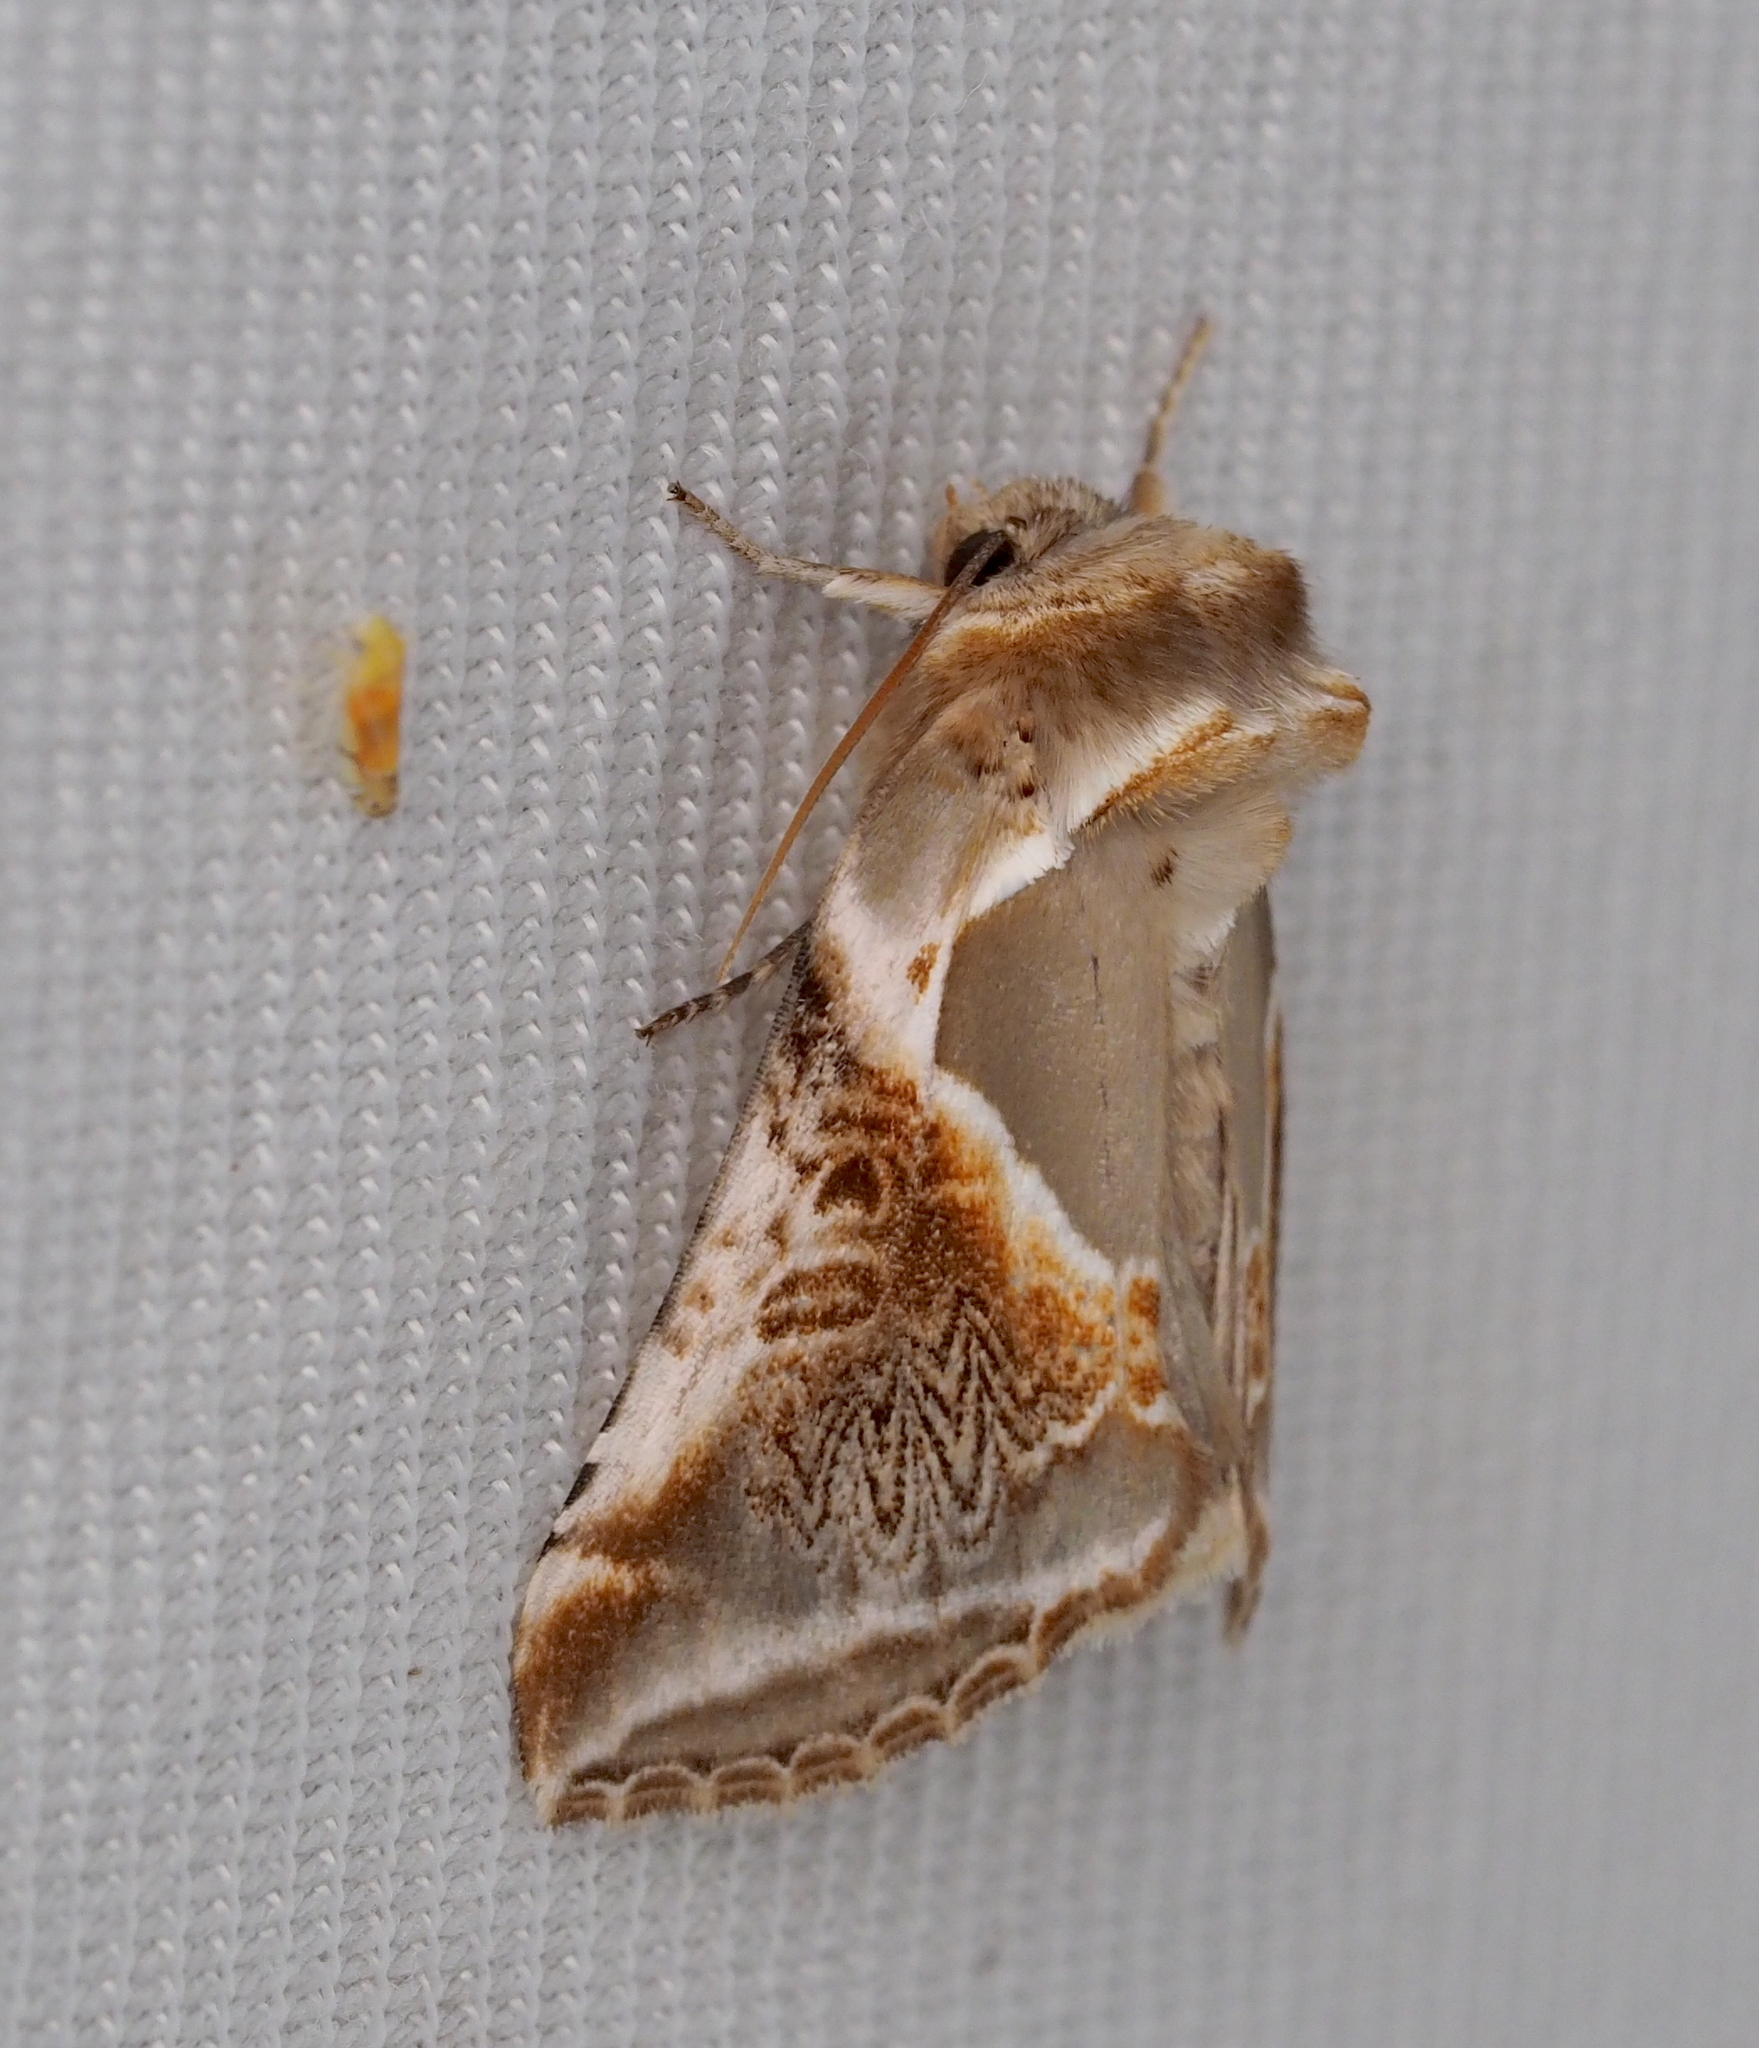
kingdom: Animalia
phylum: Arthropoda
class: Insecta
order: Lepidoptera
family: Drepanidae
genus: Habrosyne
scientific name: Habrosyne pyritoides
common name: Buff arches
